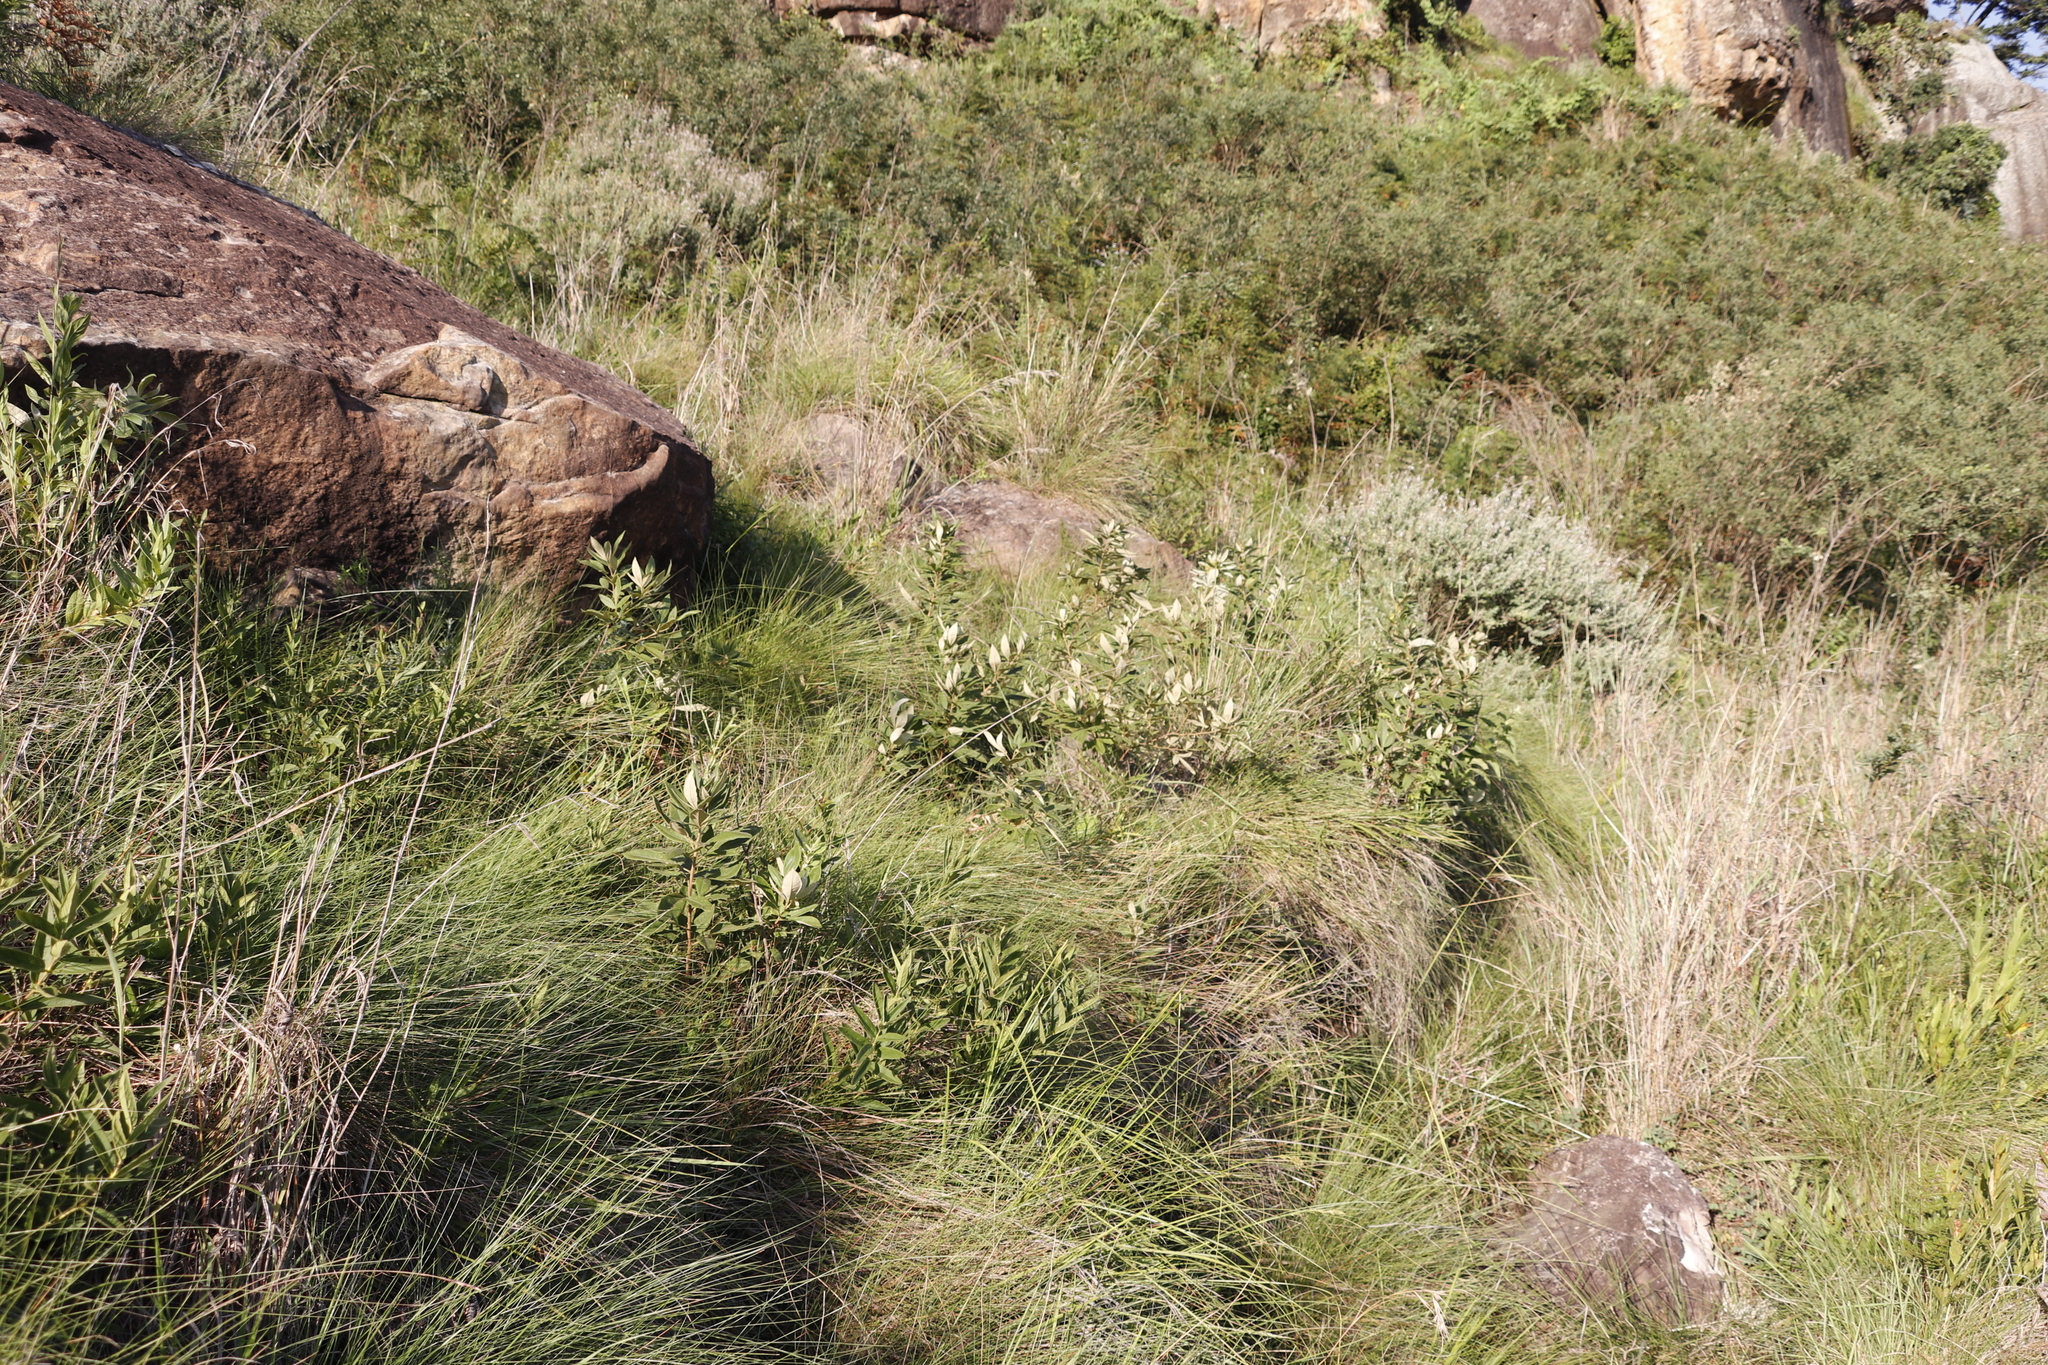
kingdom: Plantae
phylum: Tracheophyta
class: Magnoliopsida
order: Sapindales
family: Anacardiaceae
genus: Searsia
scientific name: Searsia discolor
